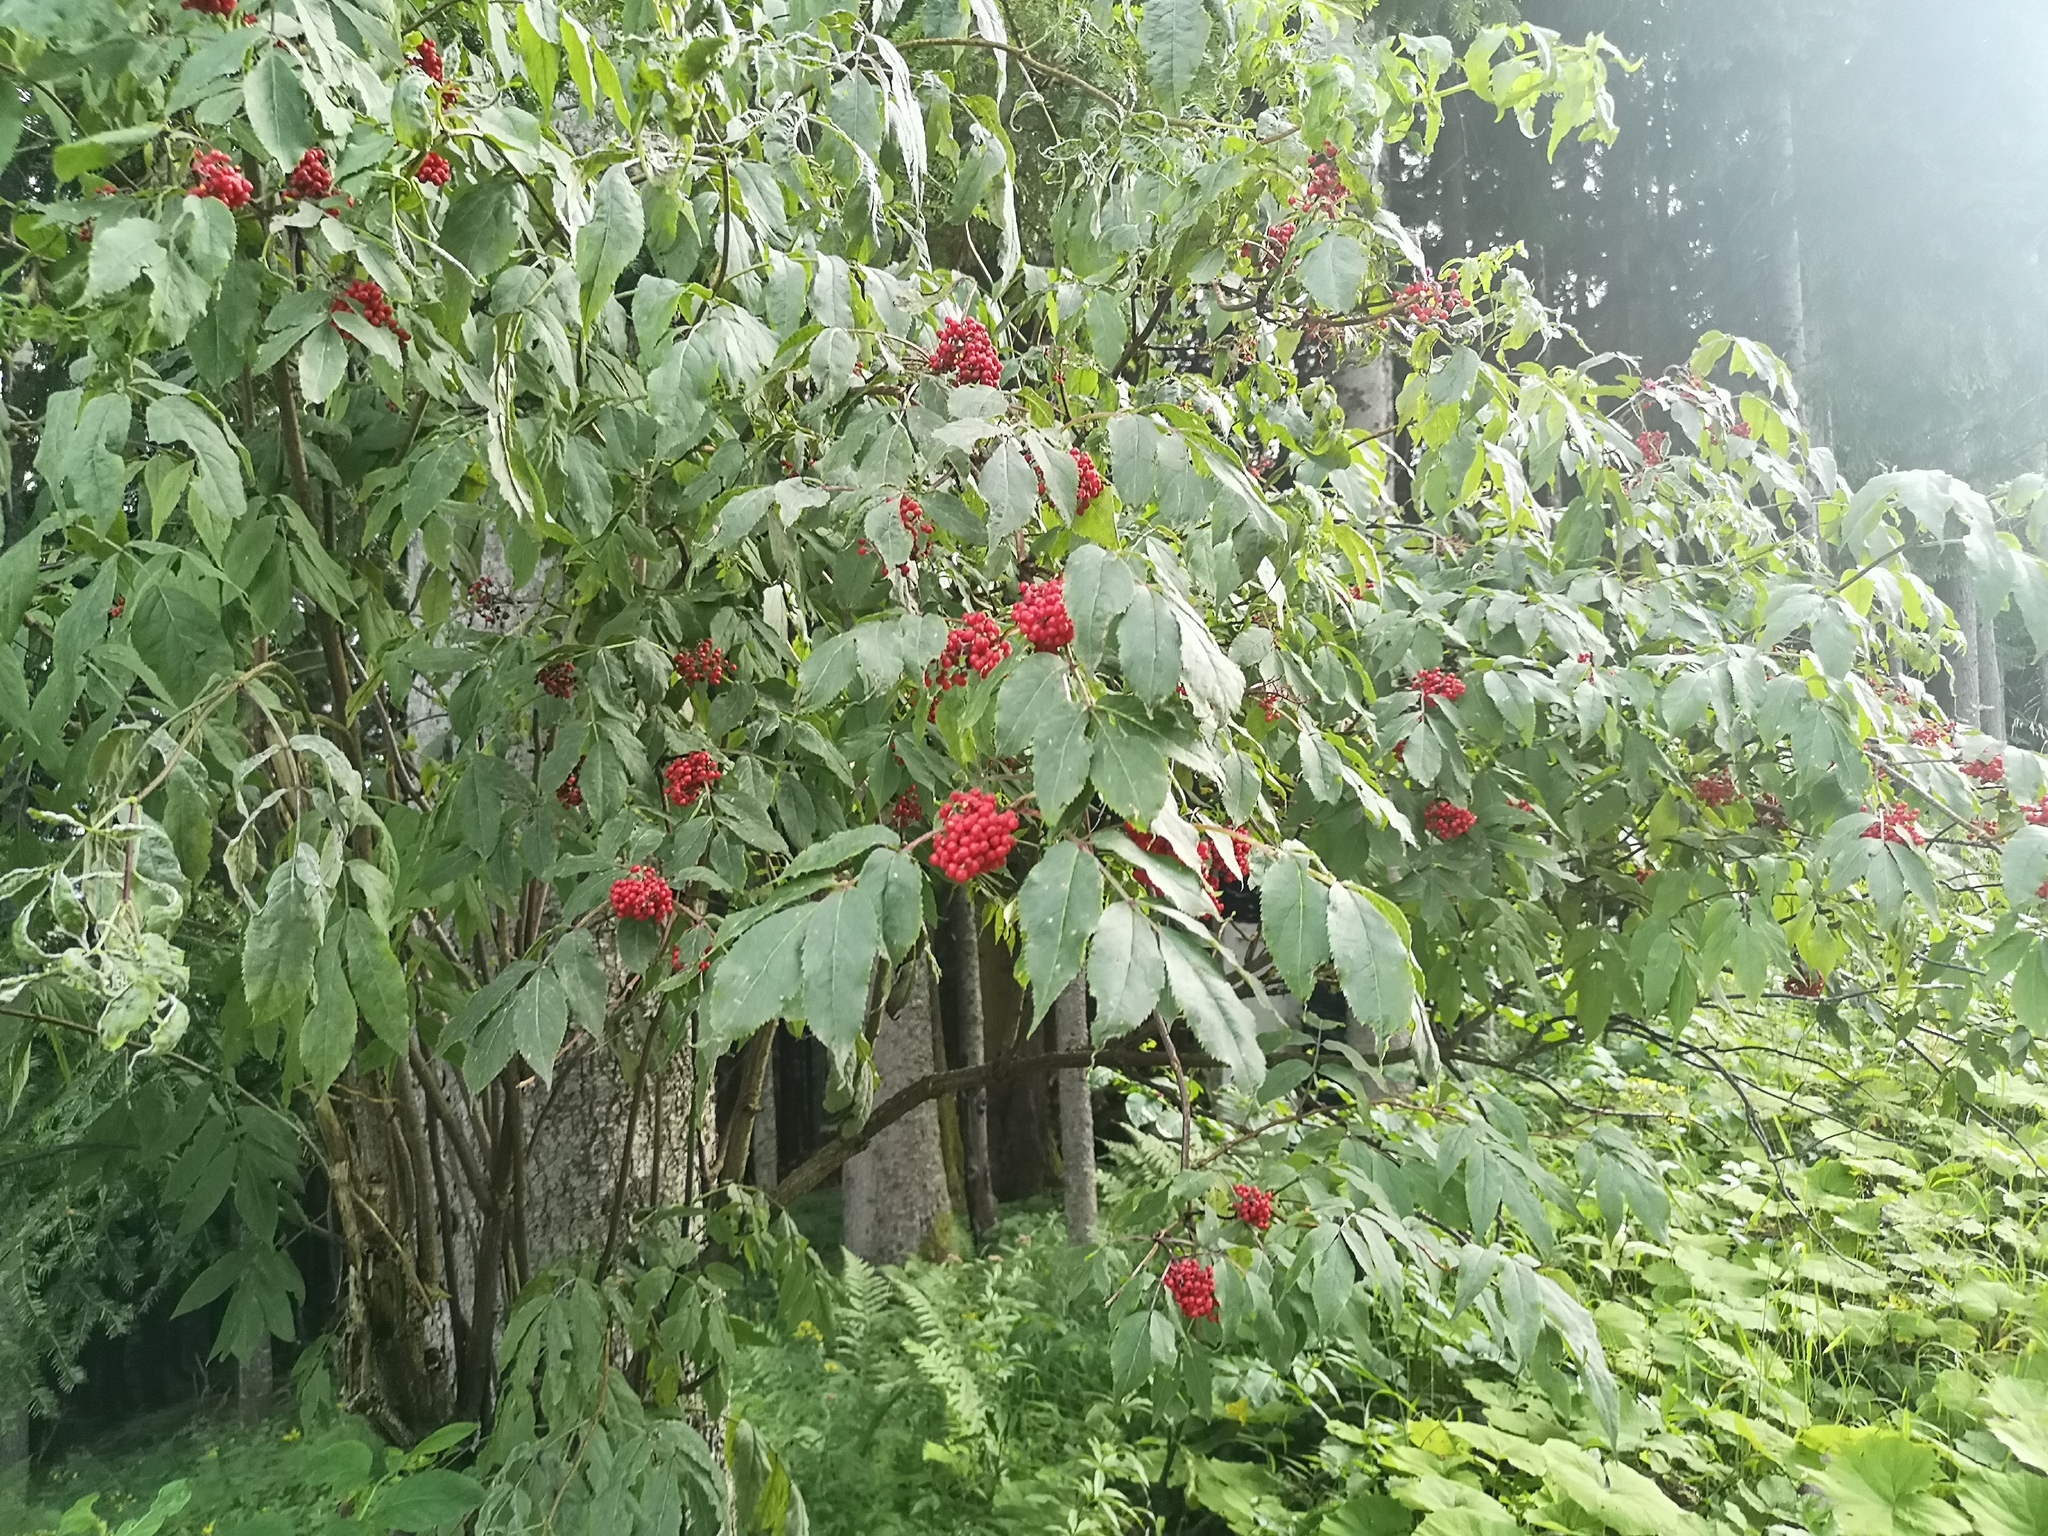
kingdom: Plantae
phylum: Tracheophyta
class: Magnoliopsida
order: Dipsacales
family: Viburnaceae
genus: Sambucus
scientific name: Sambucus racemosa
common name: Red-berried elder
